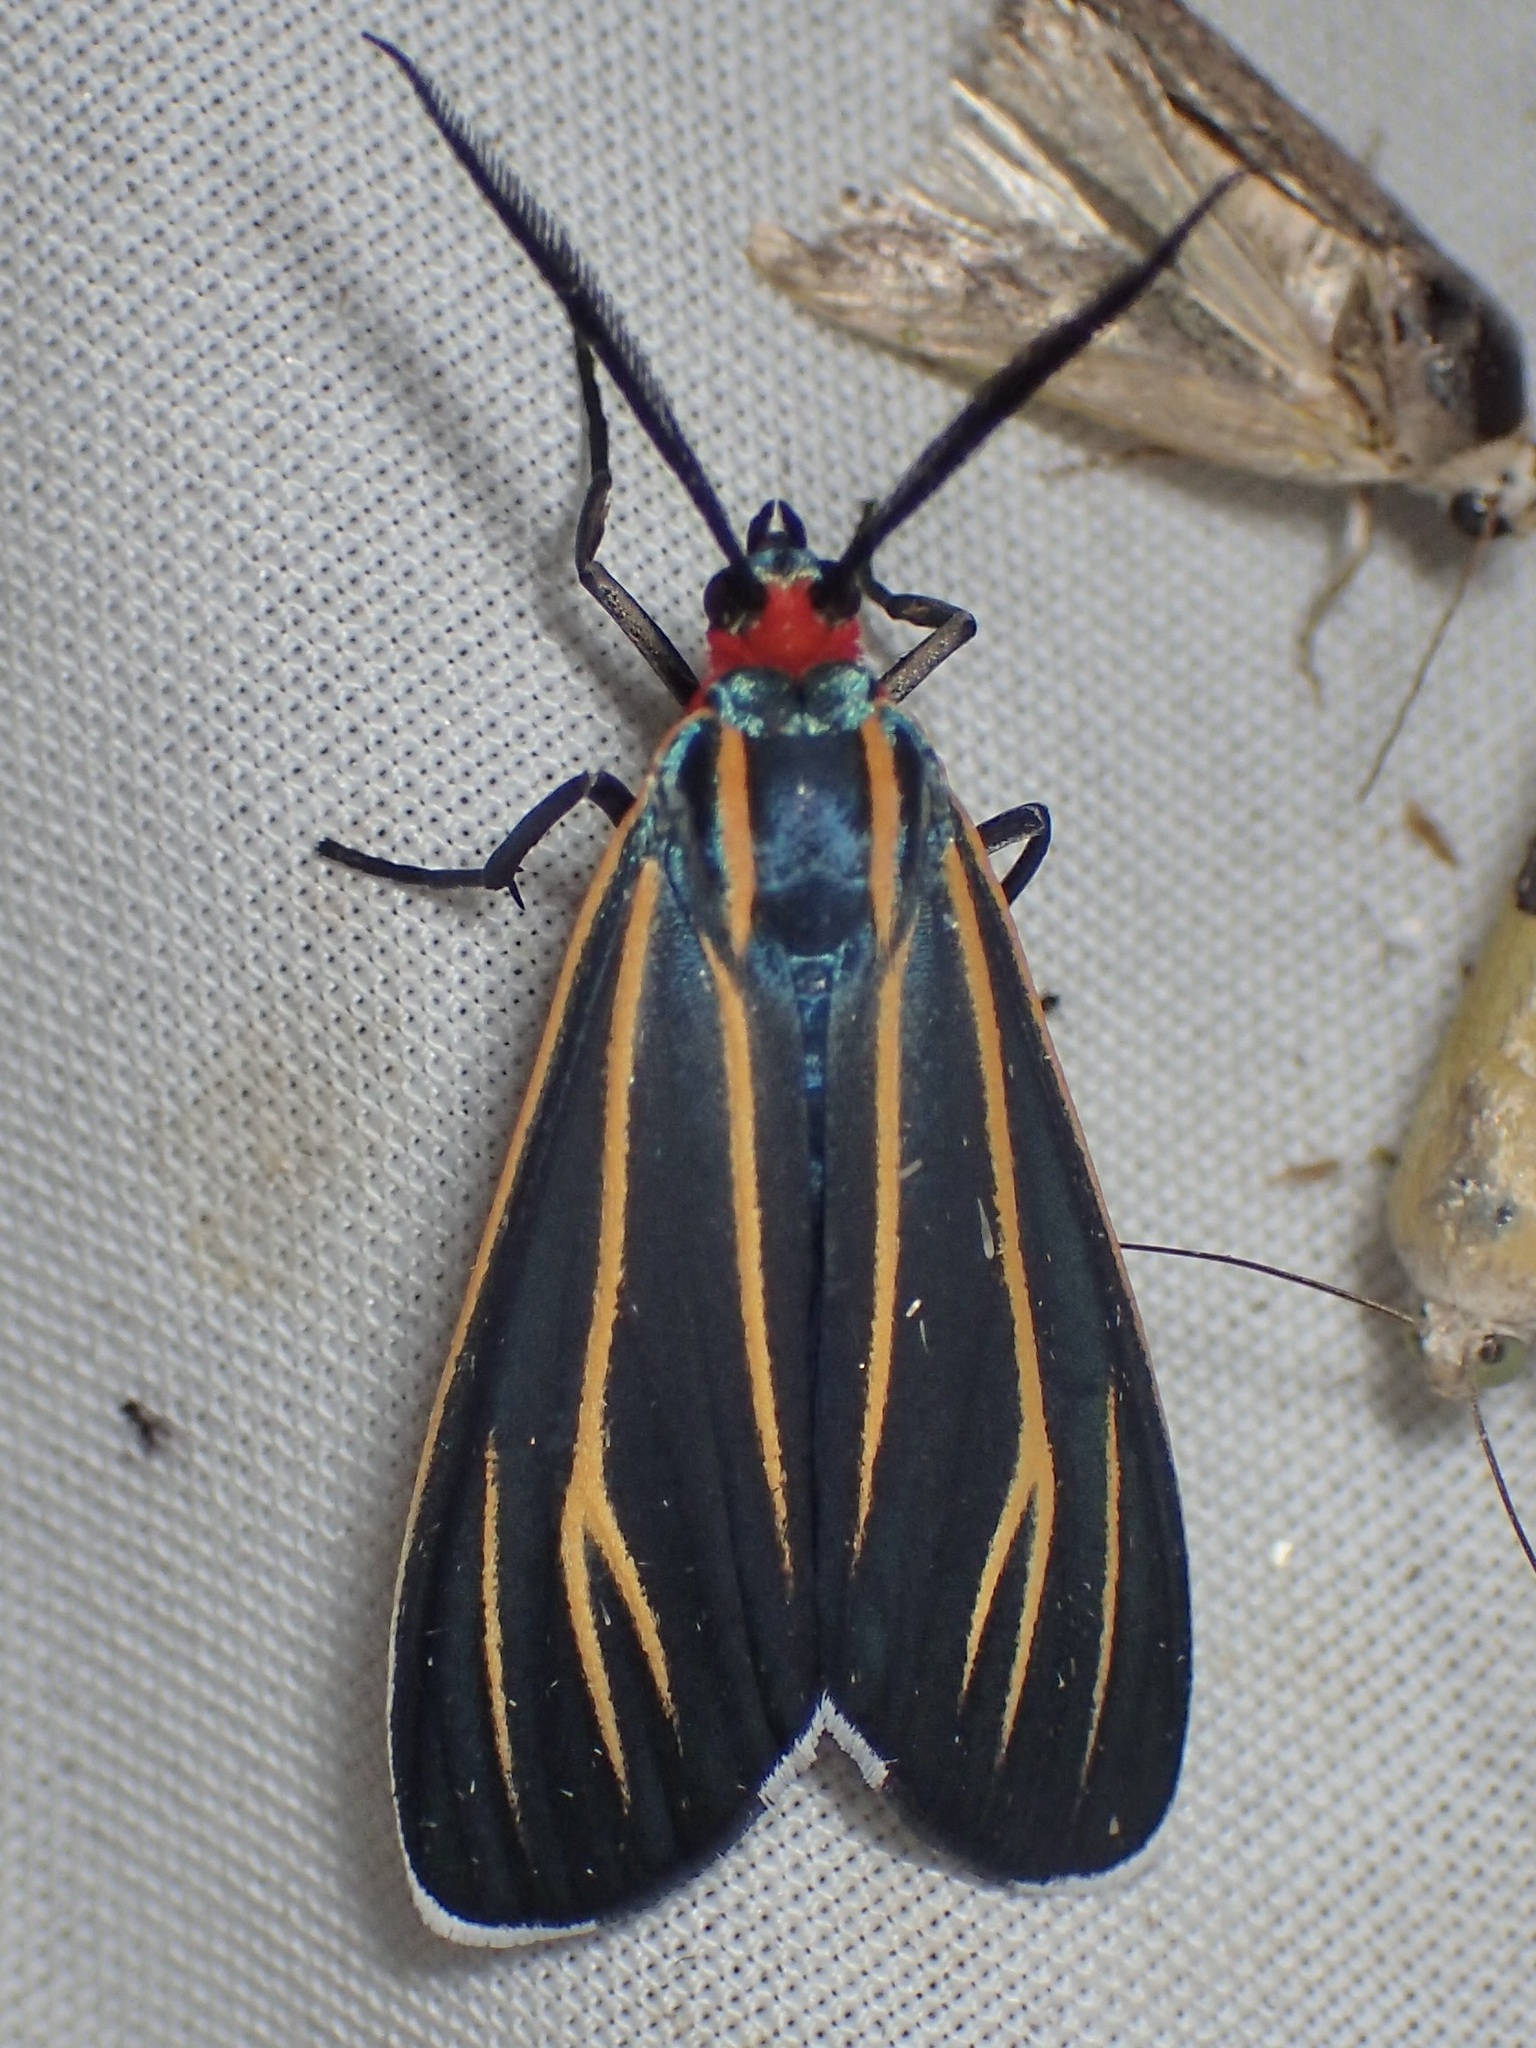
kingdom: Animalia
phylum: Arthropoda
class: Insecta
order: Lepidoptera
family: Erebidae
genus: Ctenucha
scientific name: Ctenucha venosa
